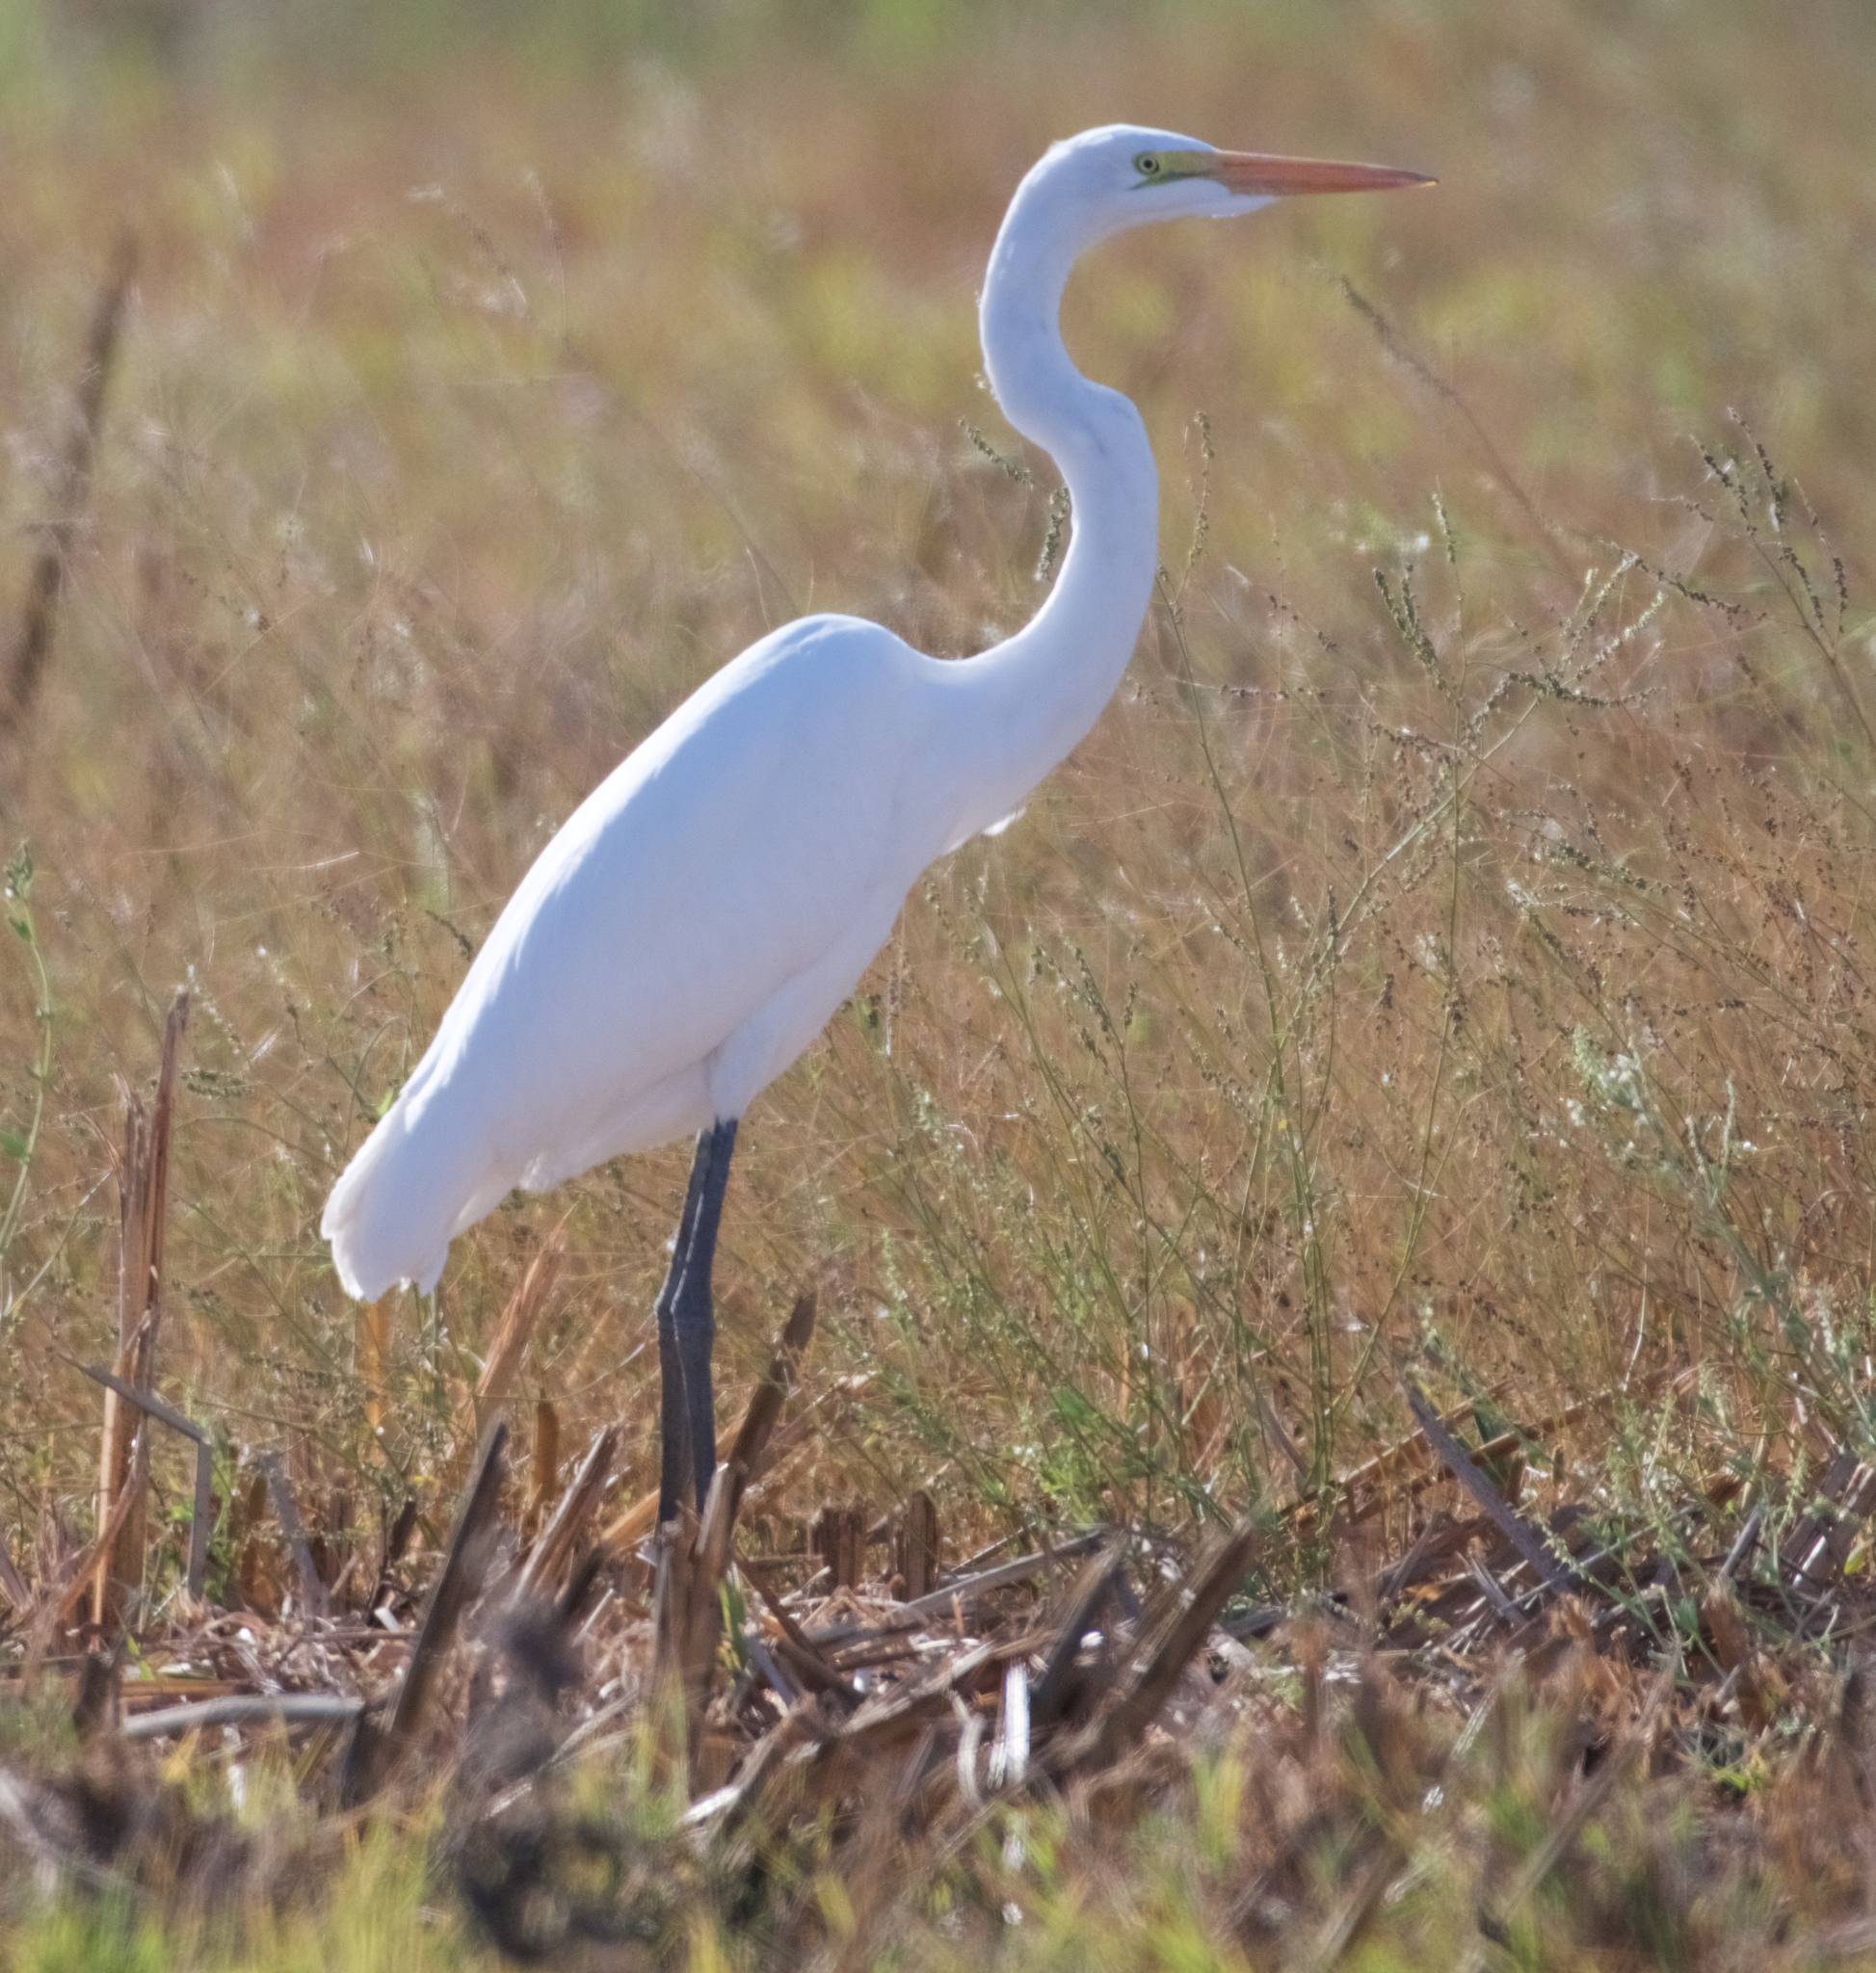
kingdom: Animalia
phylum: Chordata
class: Aves
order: Pelecaniformes
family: Ardeidae
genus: Ardea
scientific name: Ardea alba
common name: Great egret
